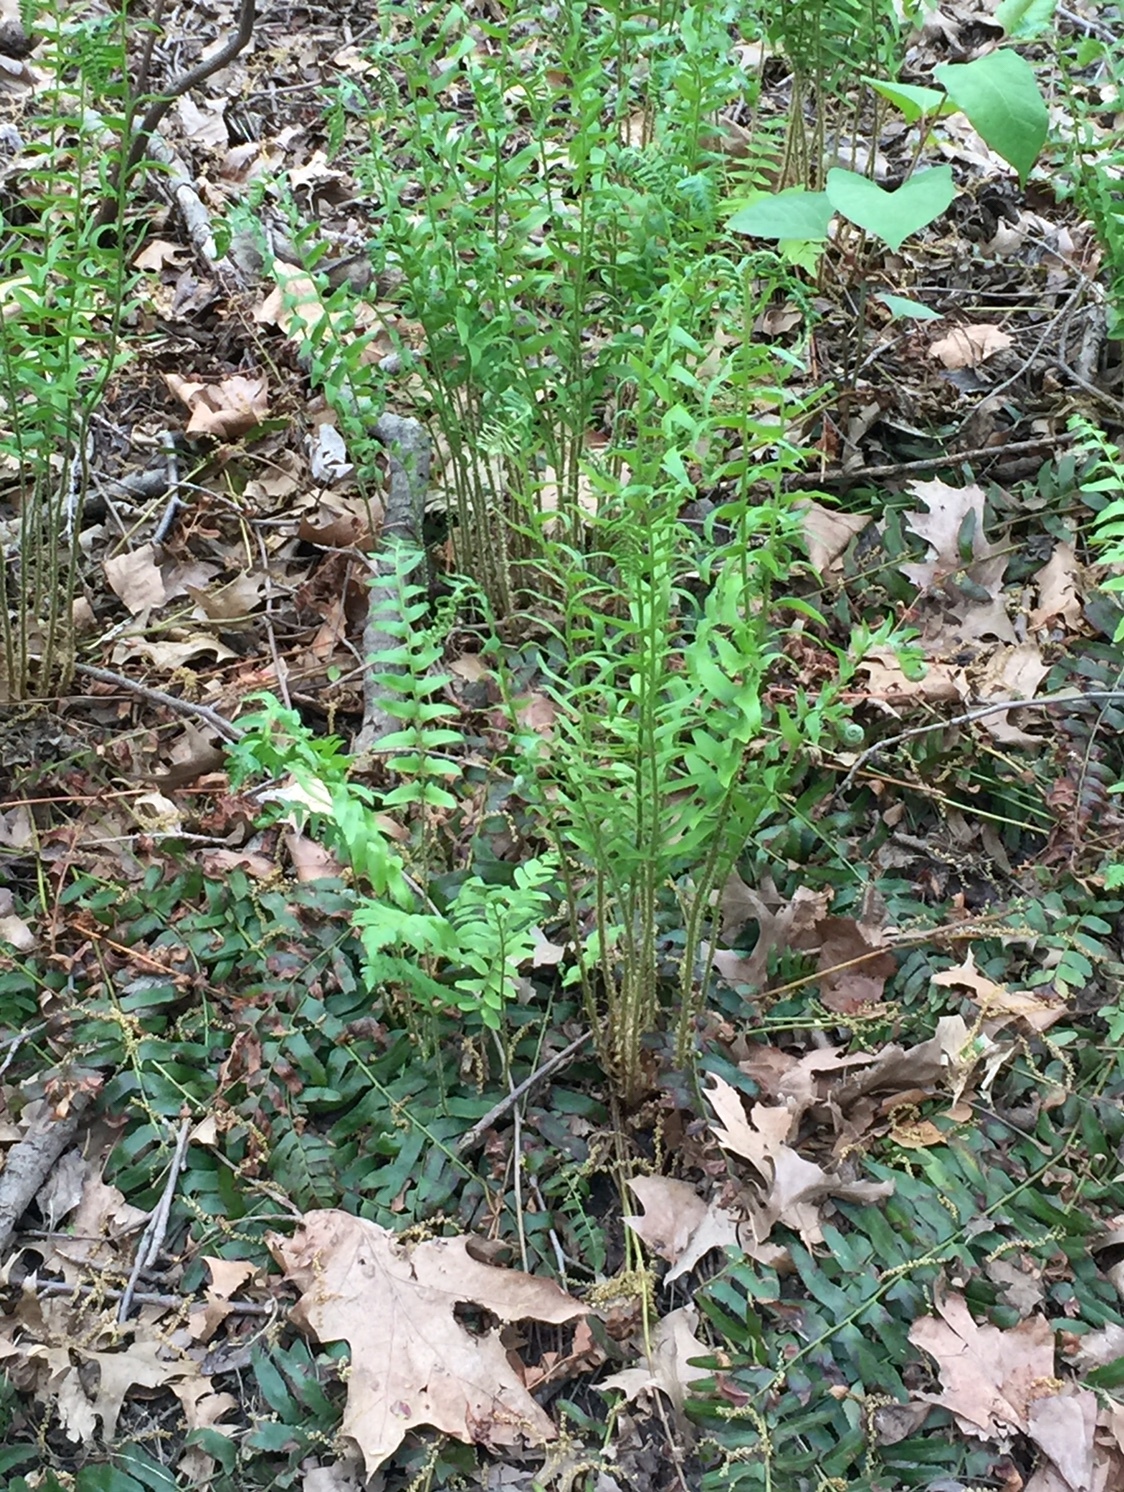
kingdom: Plantae
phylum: Tracheophyta
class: Polypodiopsida
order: Polypodiales
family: Dryopteridaceae
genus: Polystichum
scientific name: Polystichum acrostichoides
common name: Christmas fern
